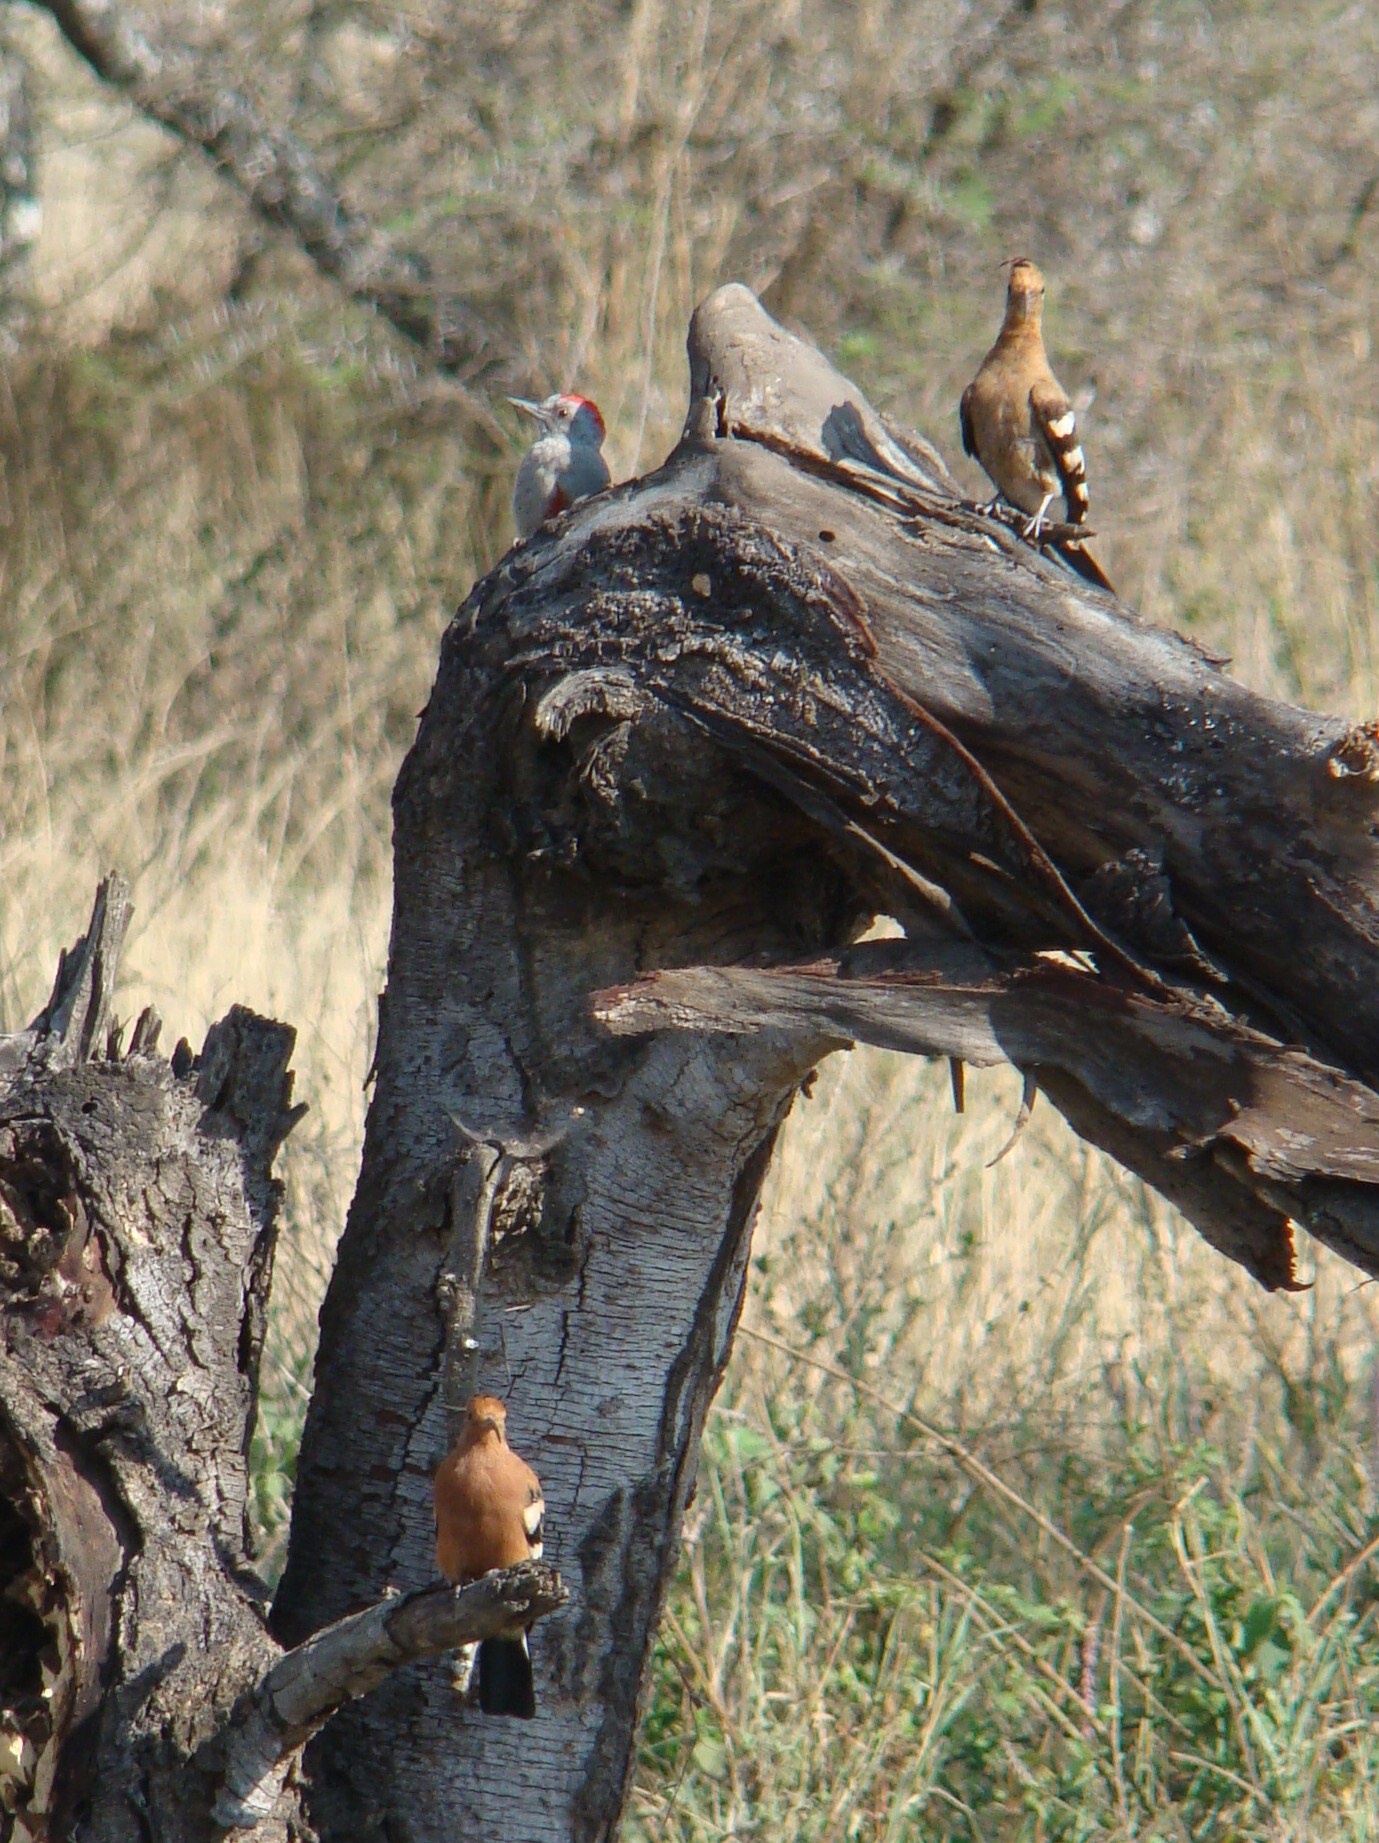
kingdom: Animalia
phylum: Chordata
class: Aves
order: Bucerotiformes
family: Upupidae
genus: Upupa
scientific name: Upupa africana
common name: African hoopoe
